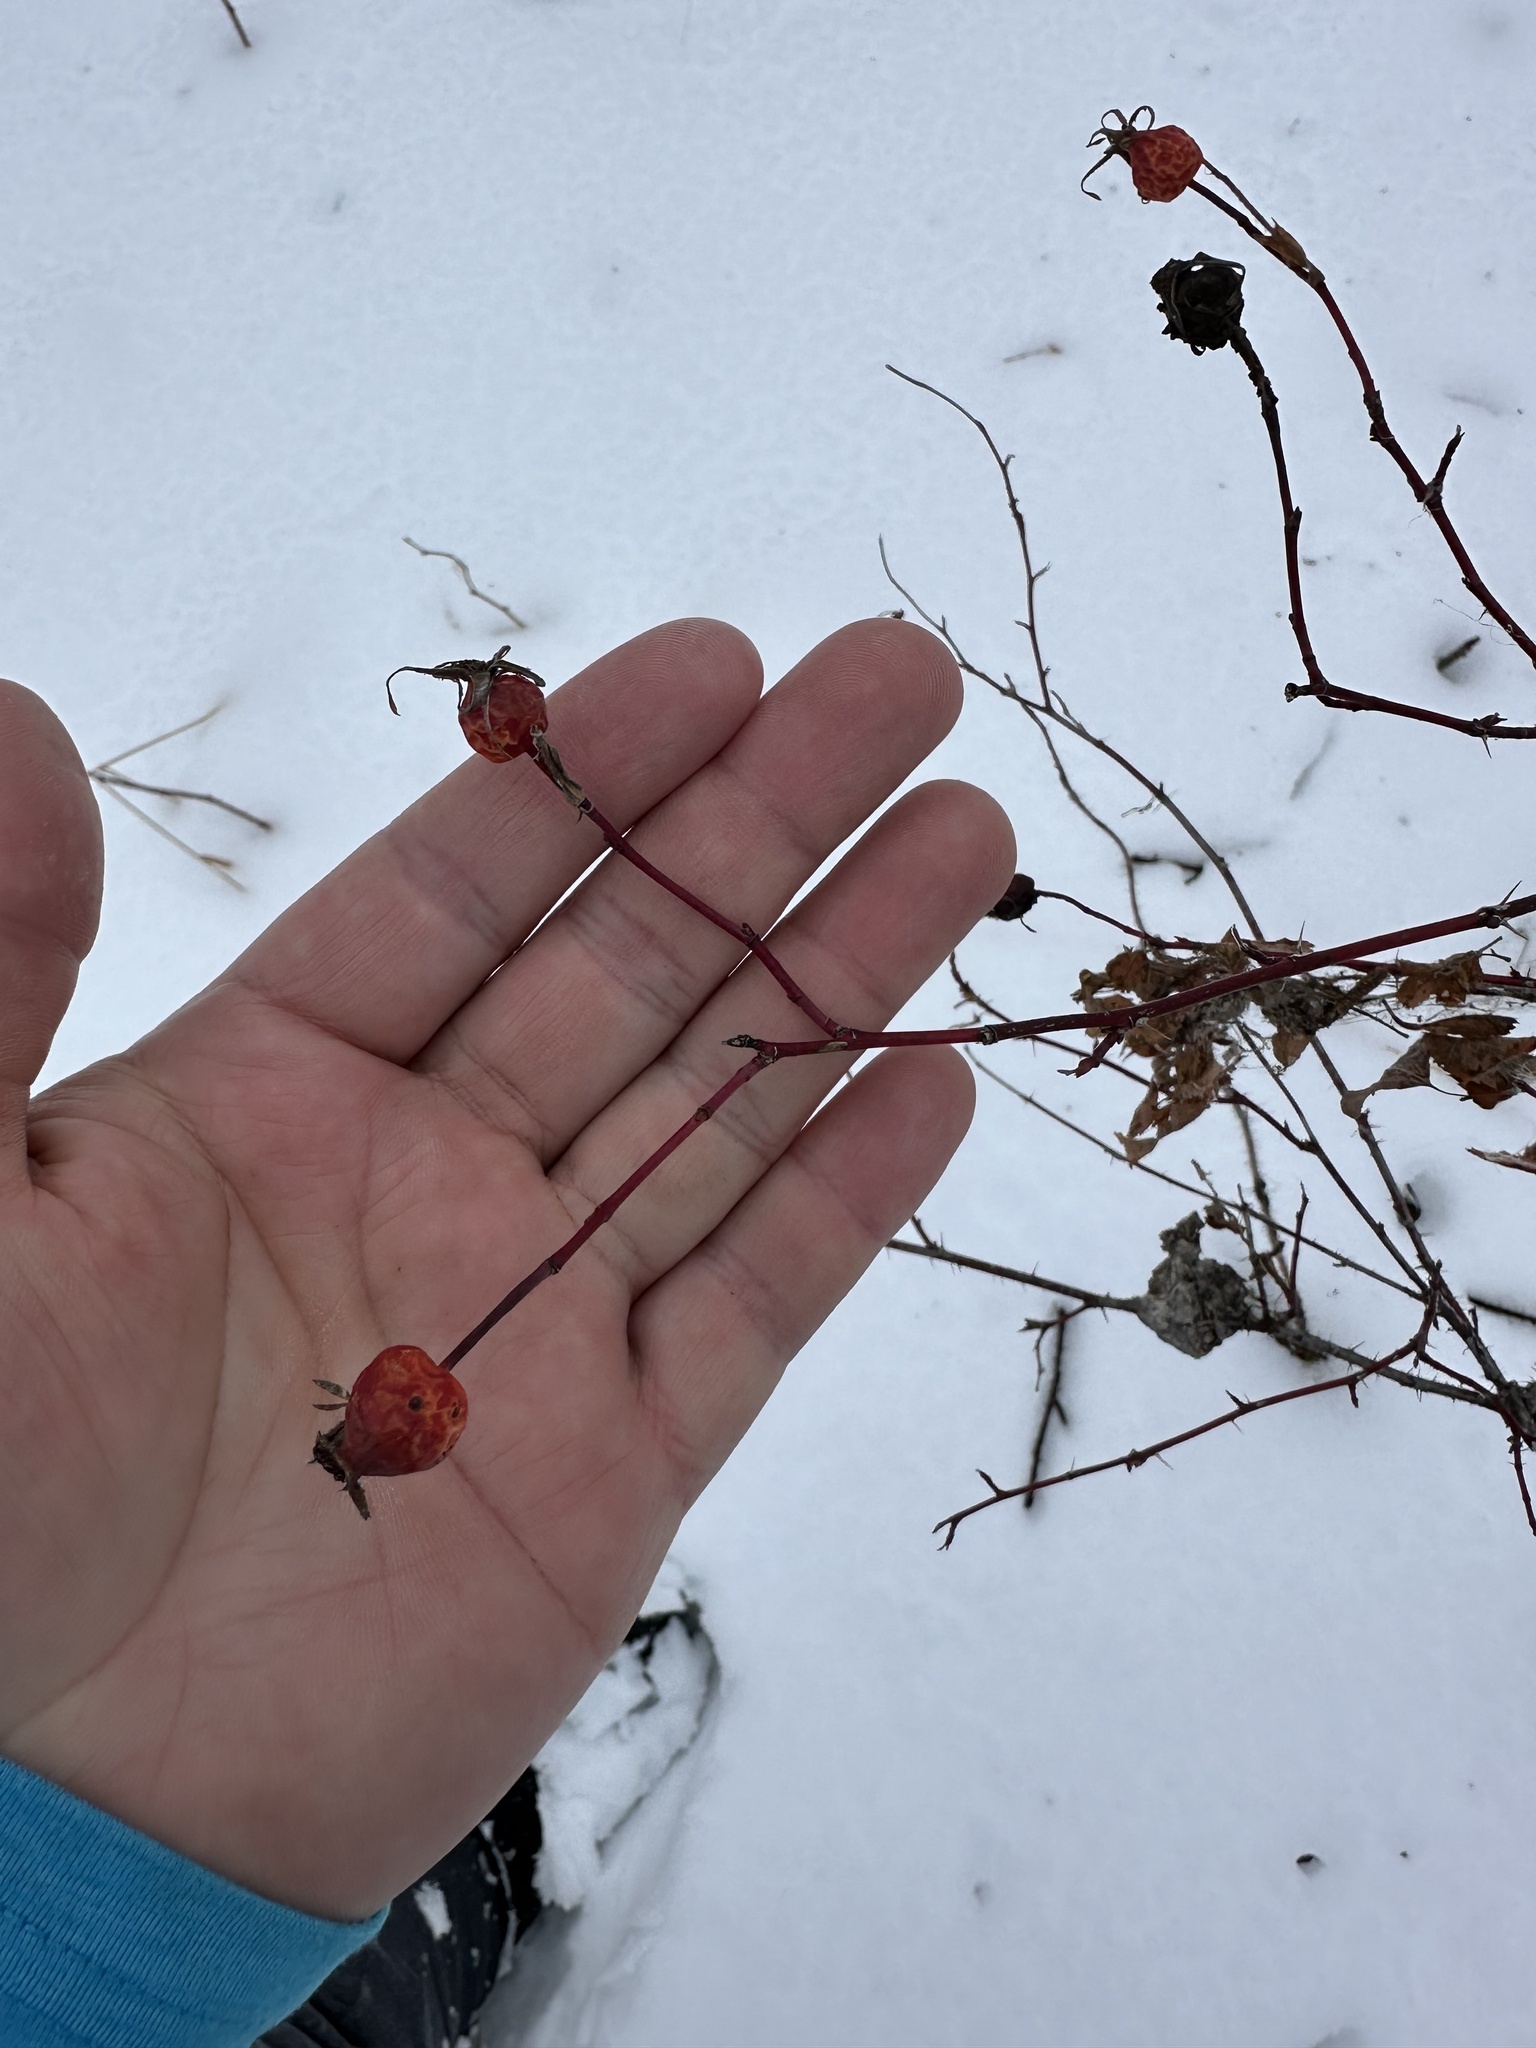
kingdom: Plantae
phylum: Tracheophyta
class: Magnoliopsida
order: Rosales
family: Rosaceae
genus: Rosa
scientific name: Rosa woodsii
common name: Woods's rose
